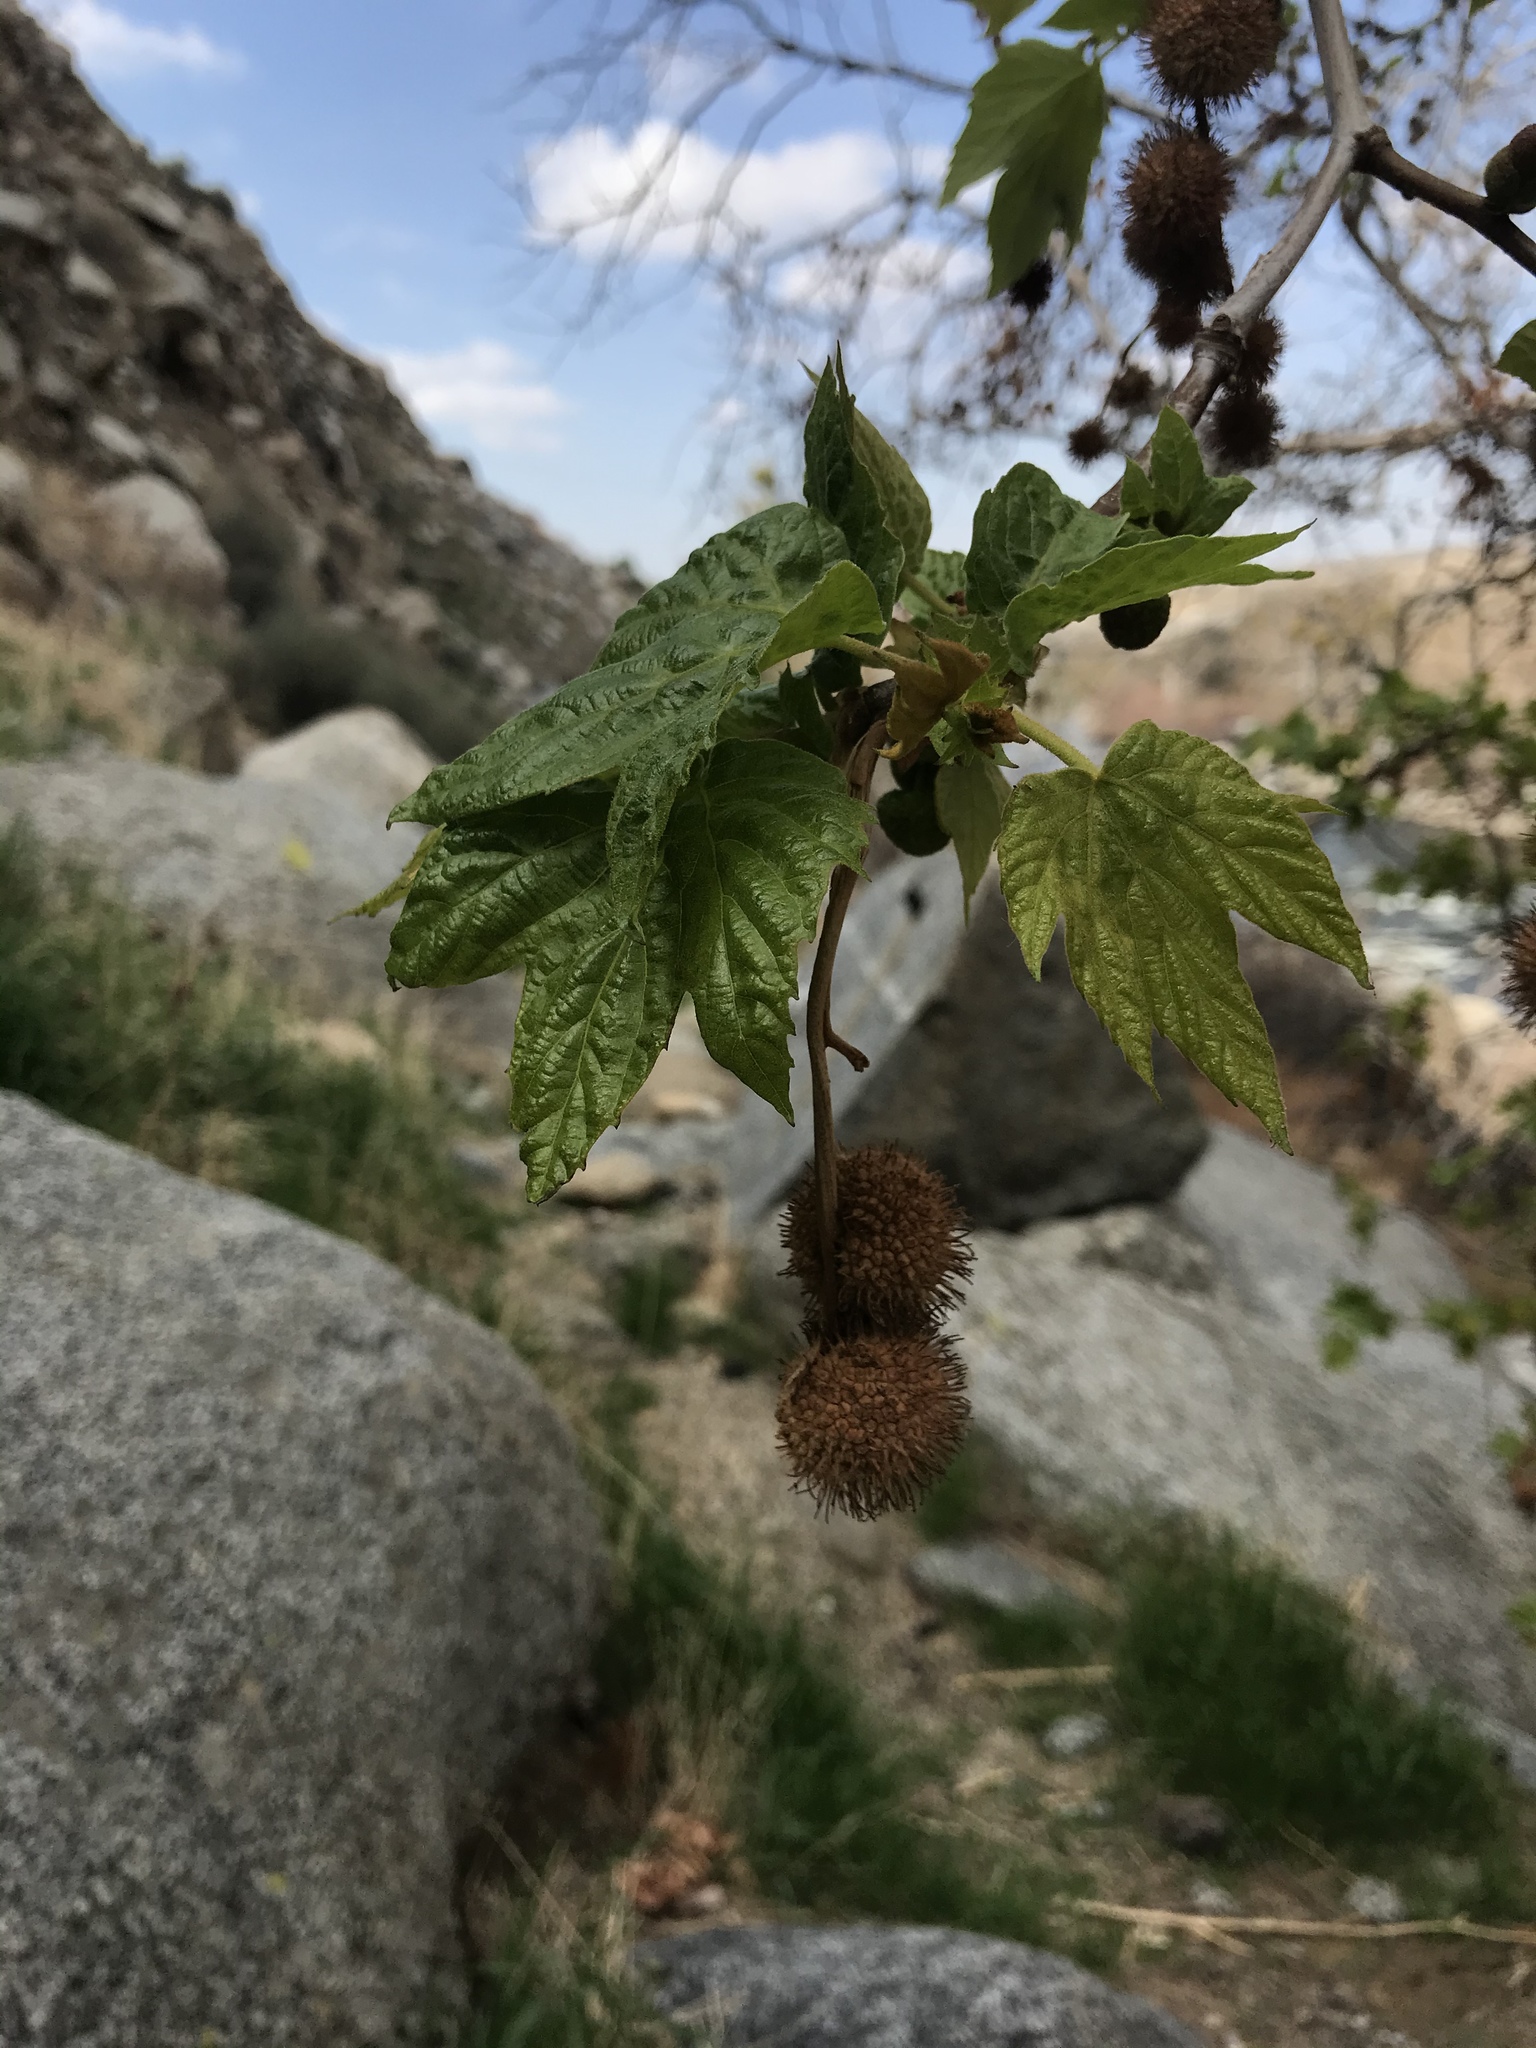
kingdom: Plantae
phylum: Tracheophyta
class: Magnoliopsida
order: Proteales
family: Platanaceae
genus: Platanus
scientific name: Platanus racemosa
